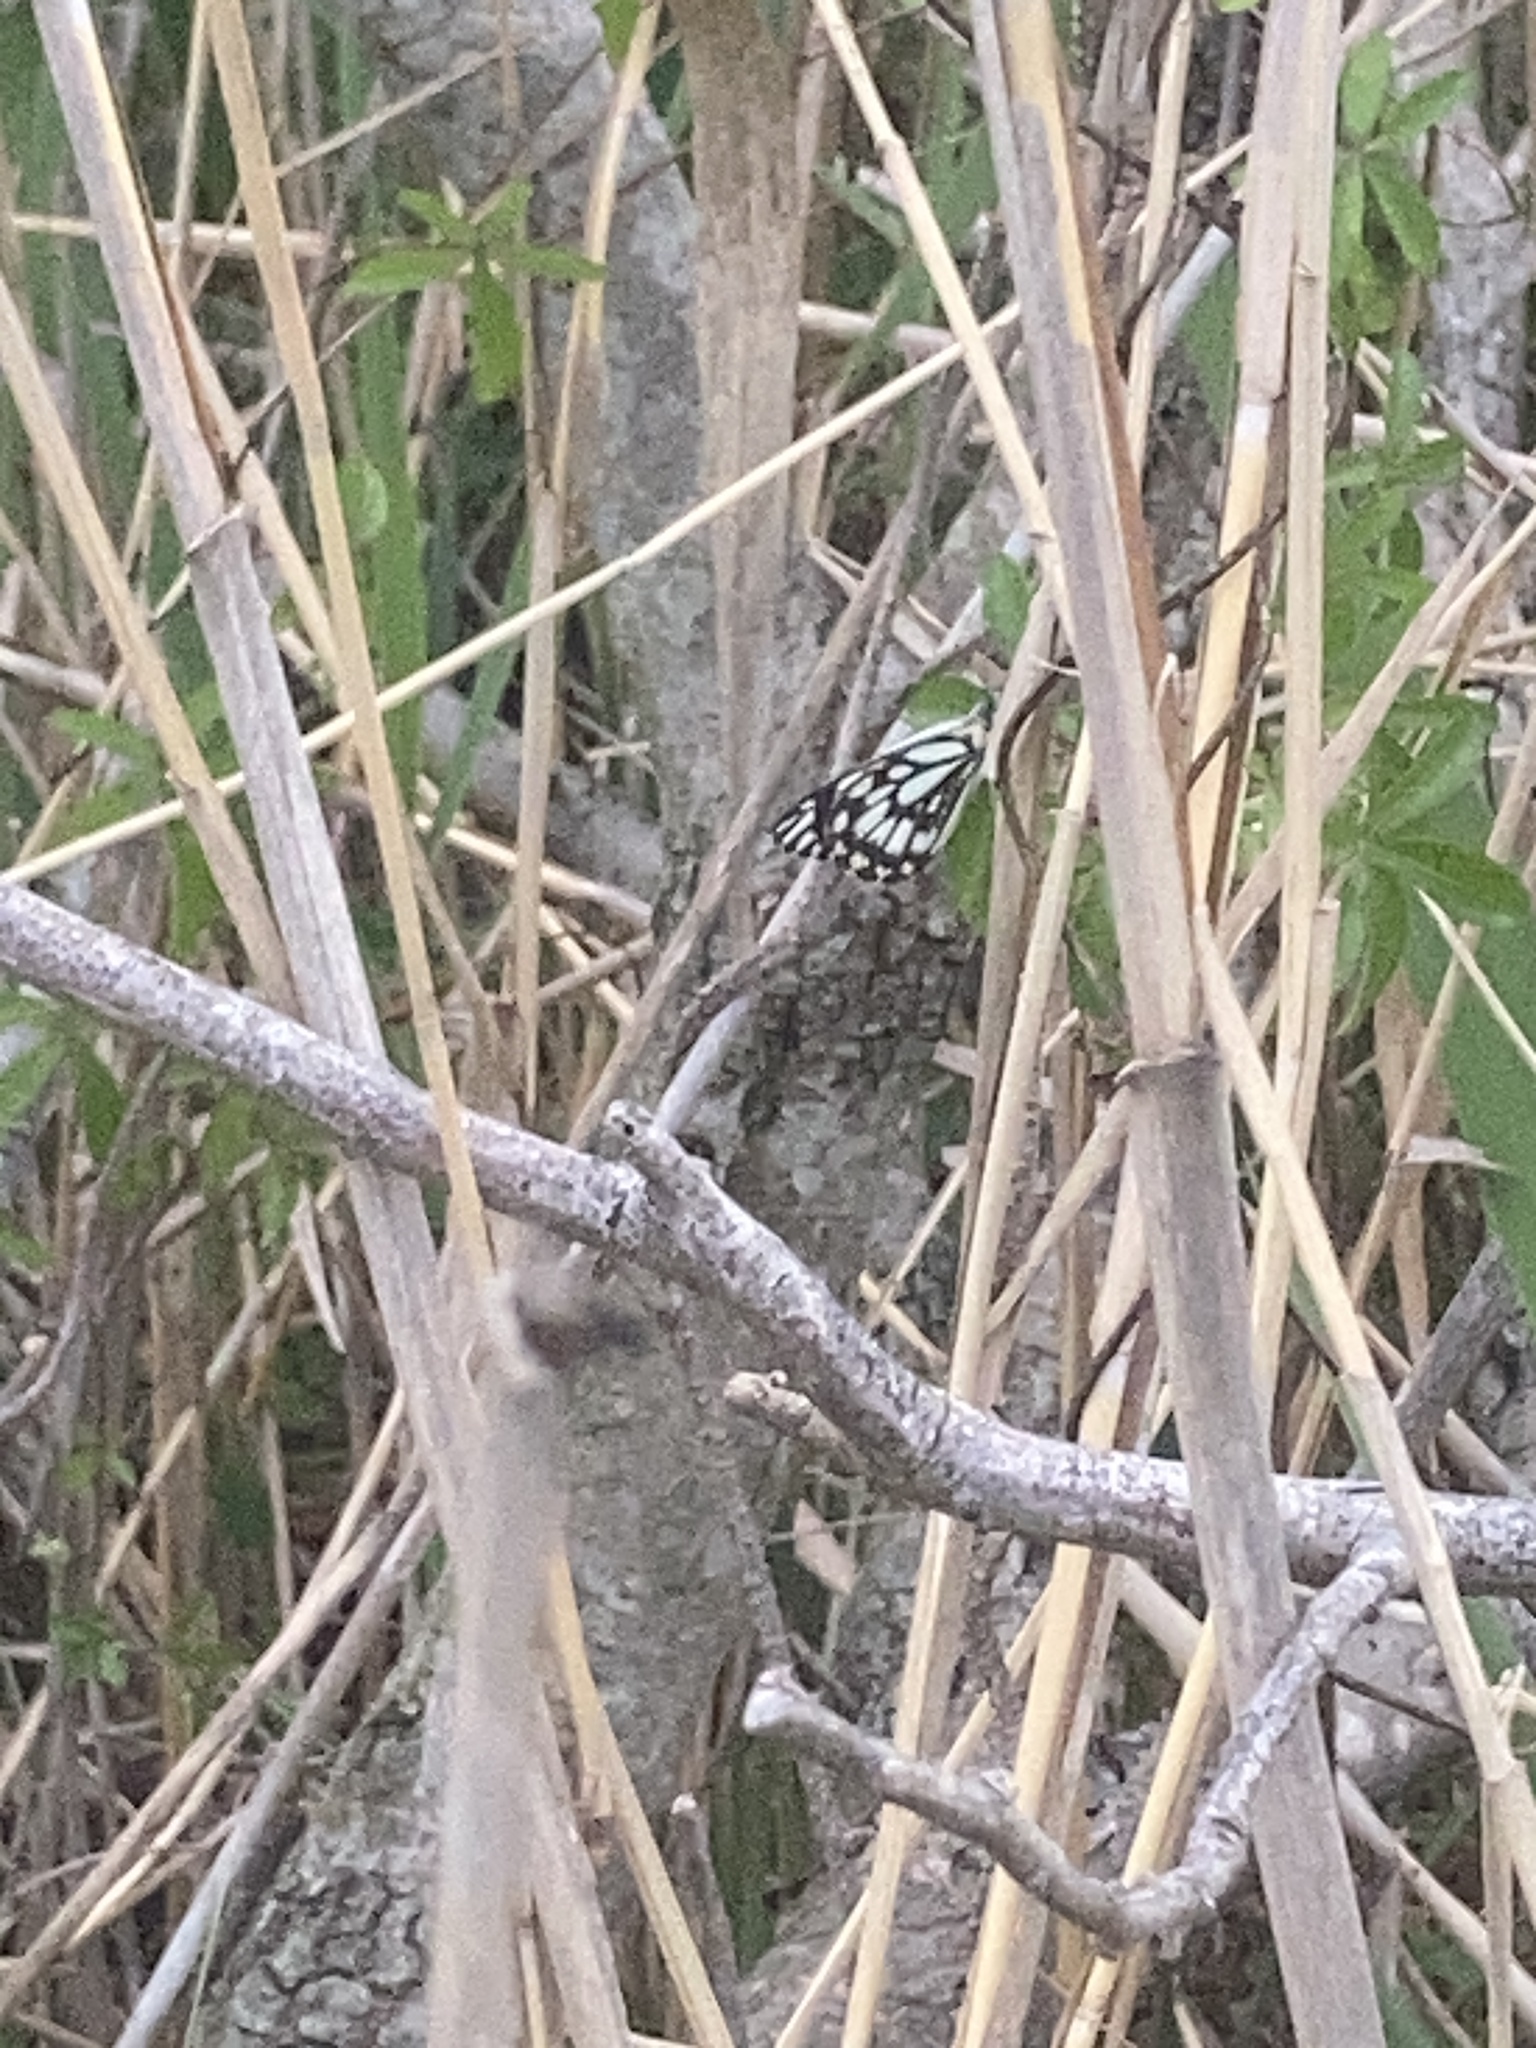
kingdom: Animalia
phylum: Arthropoda
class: Insecta
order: Lepidoptera
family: Pieridae
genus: Belenois
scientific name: Belenois java
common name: Caper white
